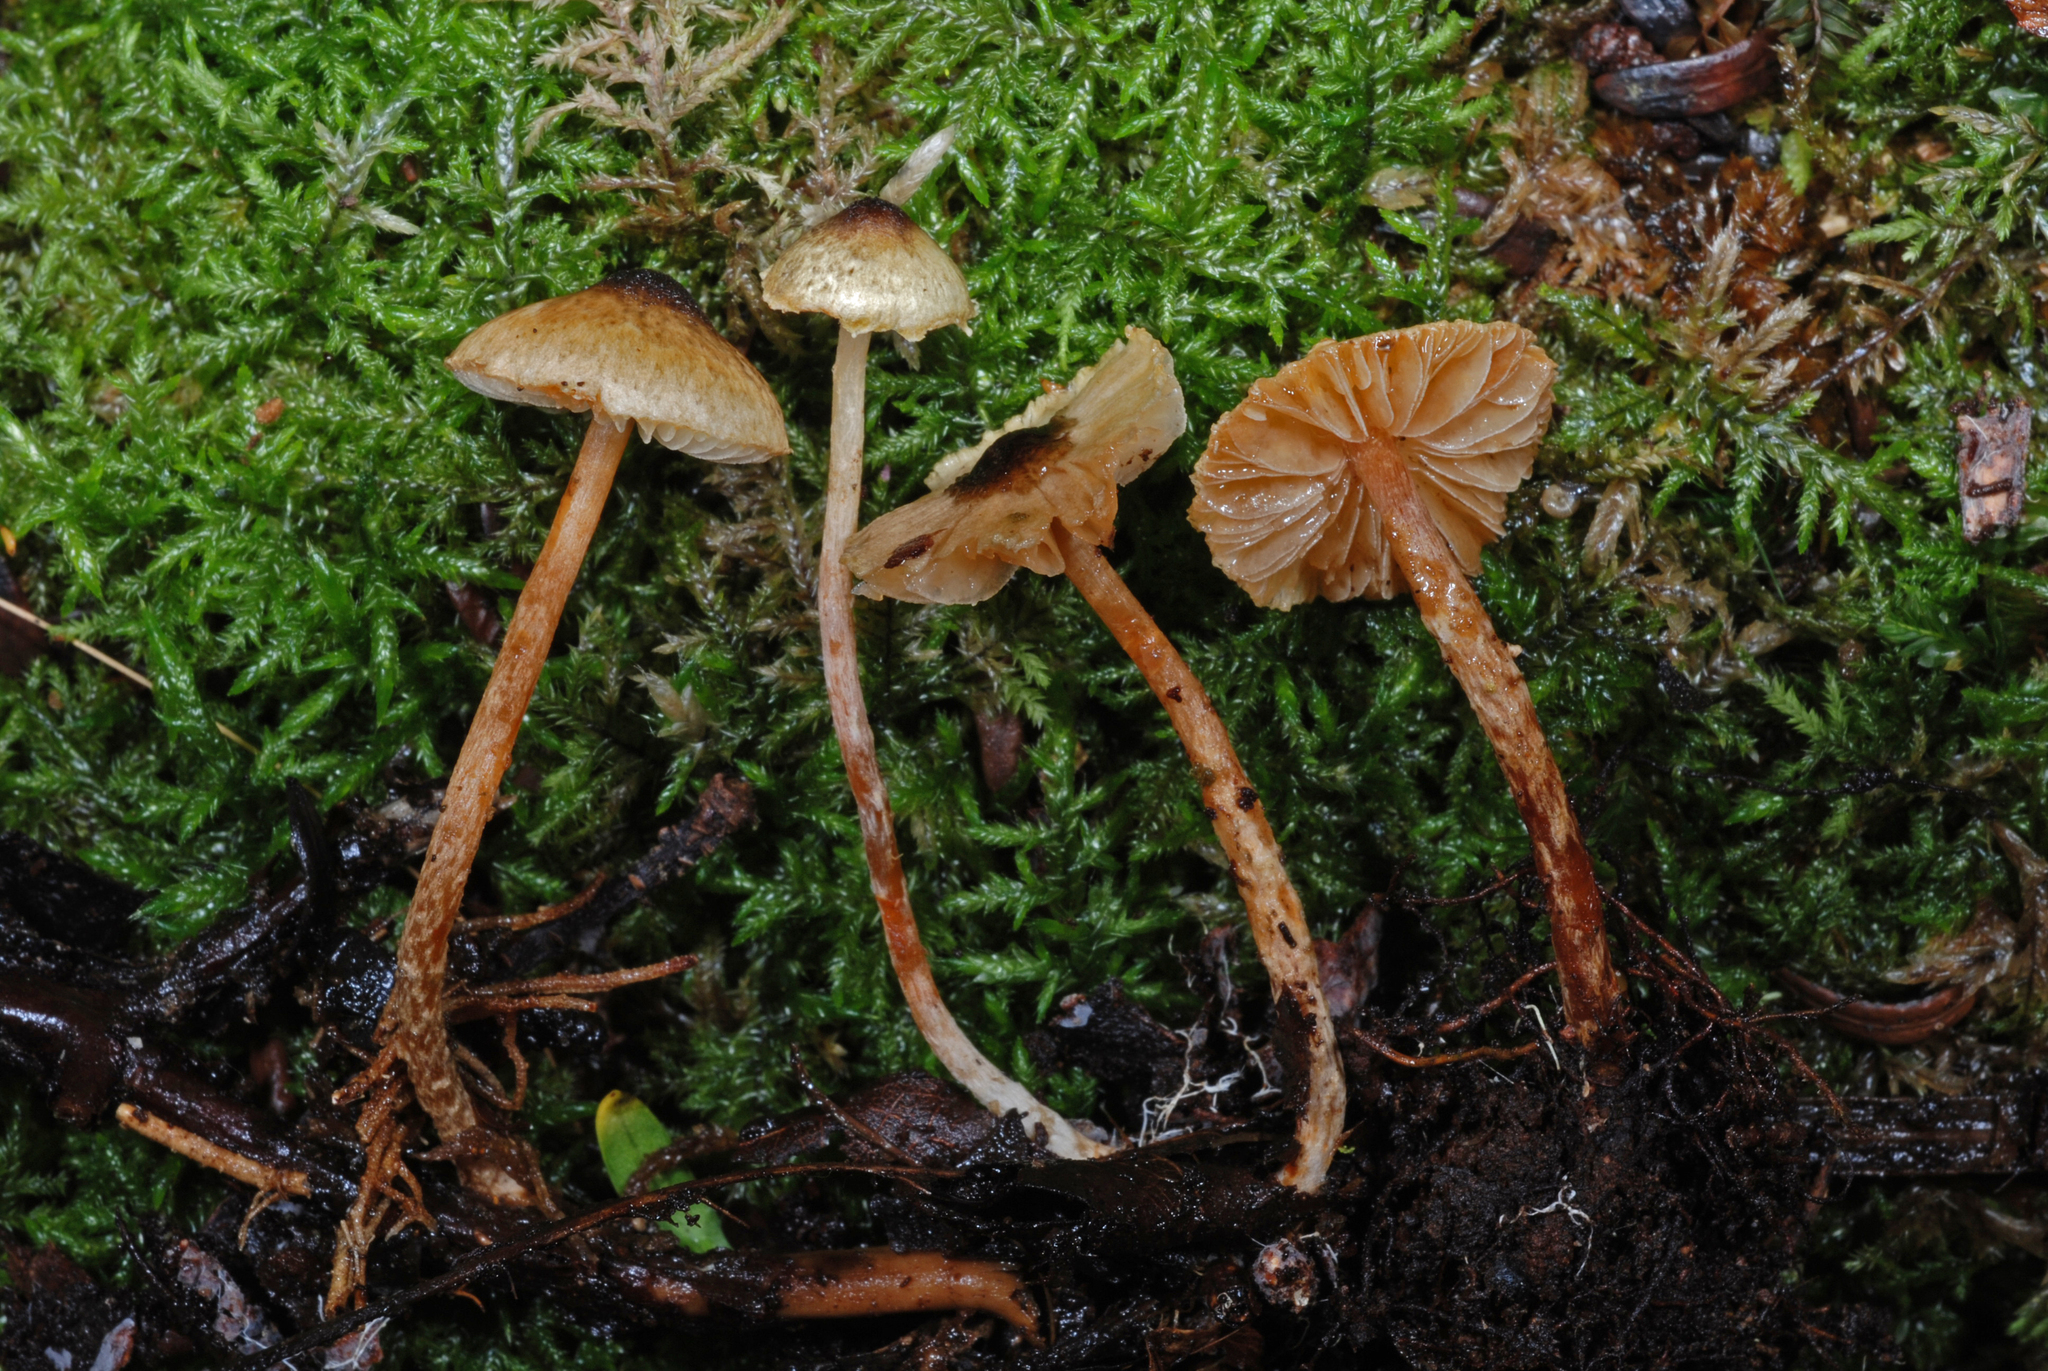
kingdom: Fungi
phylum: Basidiomycota
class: Agaricomycetes
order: Agaricales
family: Agaricaceae
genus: Lepiota
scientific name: Lepiota calcarata
